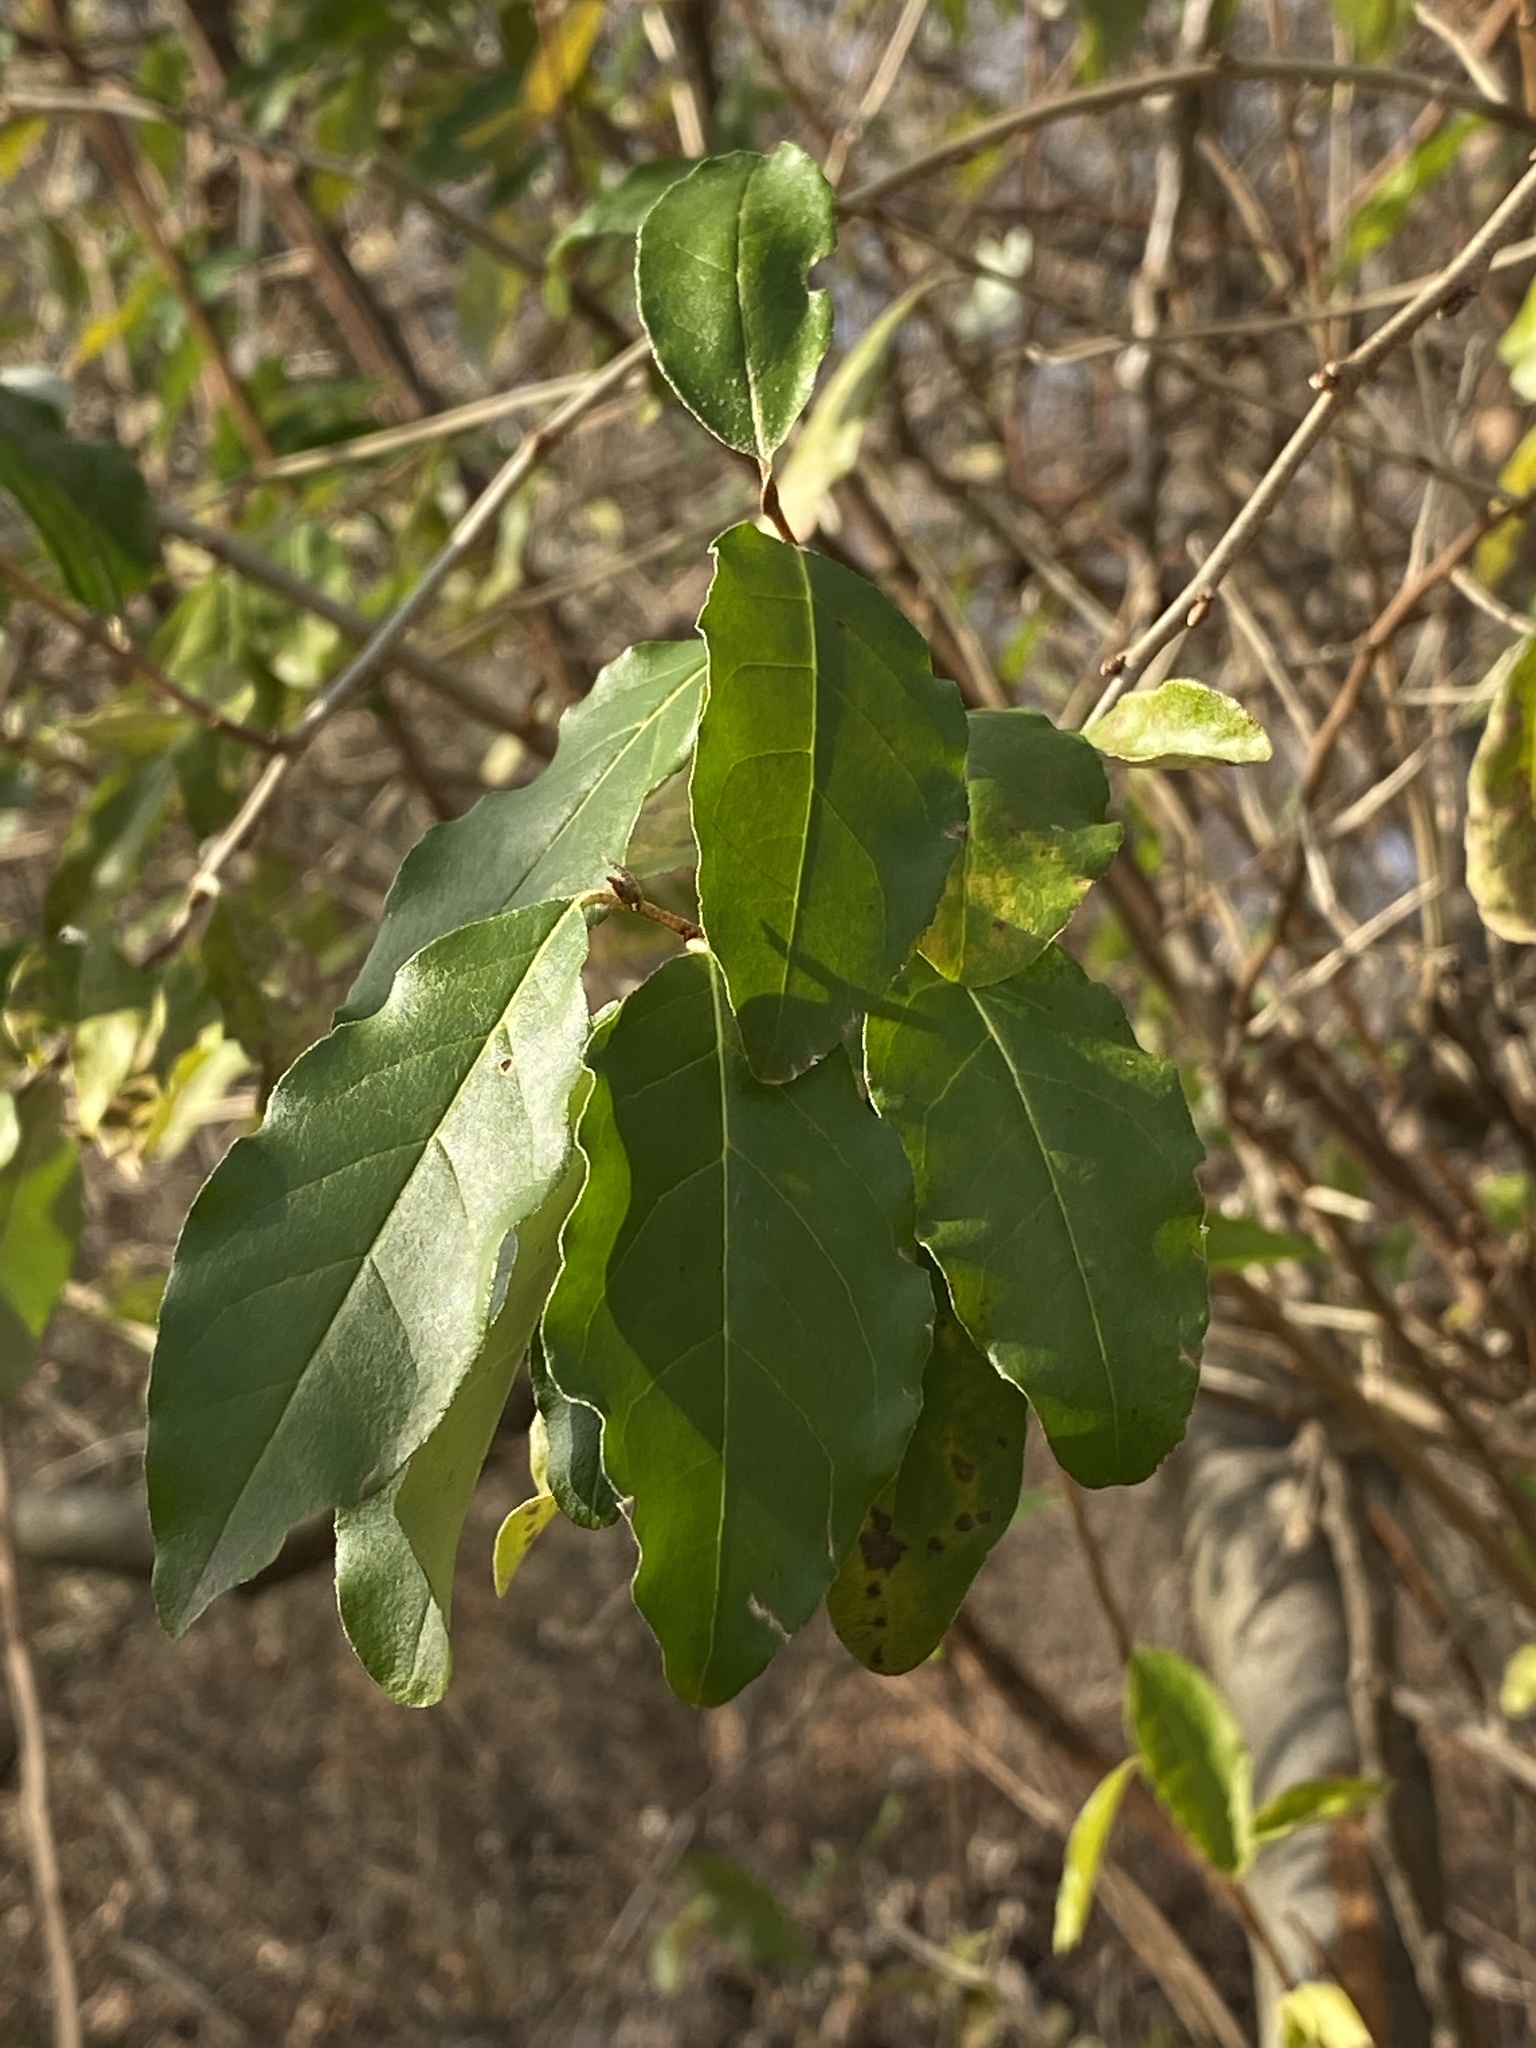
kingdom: Plantae
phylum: Tracheophyta
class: Magnoliopsida
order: Rosales
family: Elaeagnaceae
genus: Elaeagnus
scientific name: Elaeagnus umbellata
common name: Autumn olive
